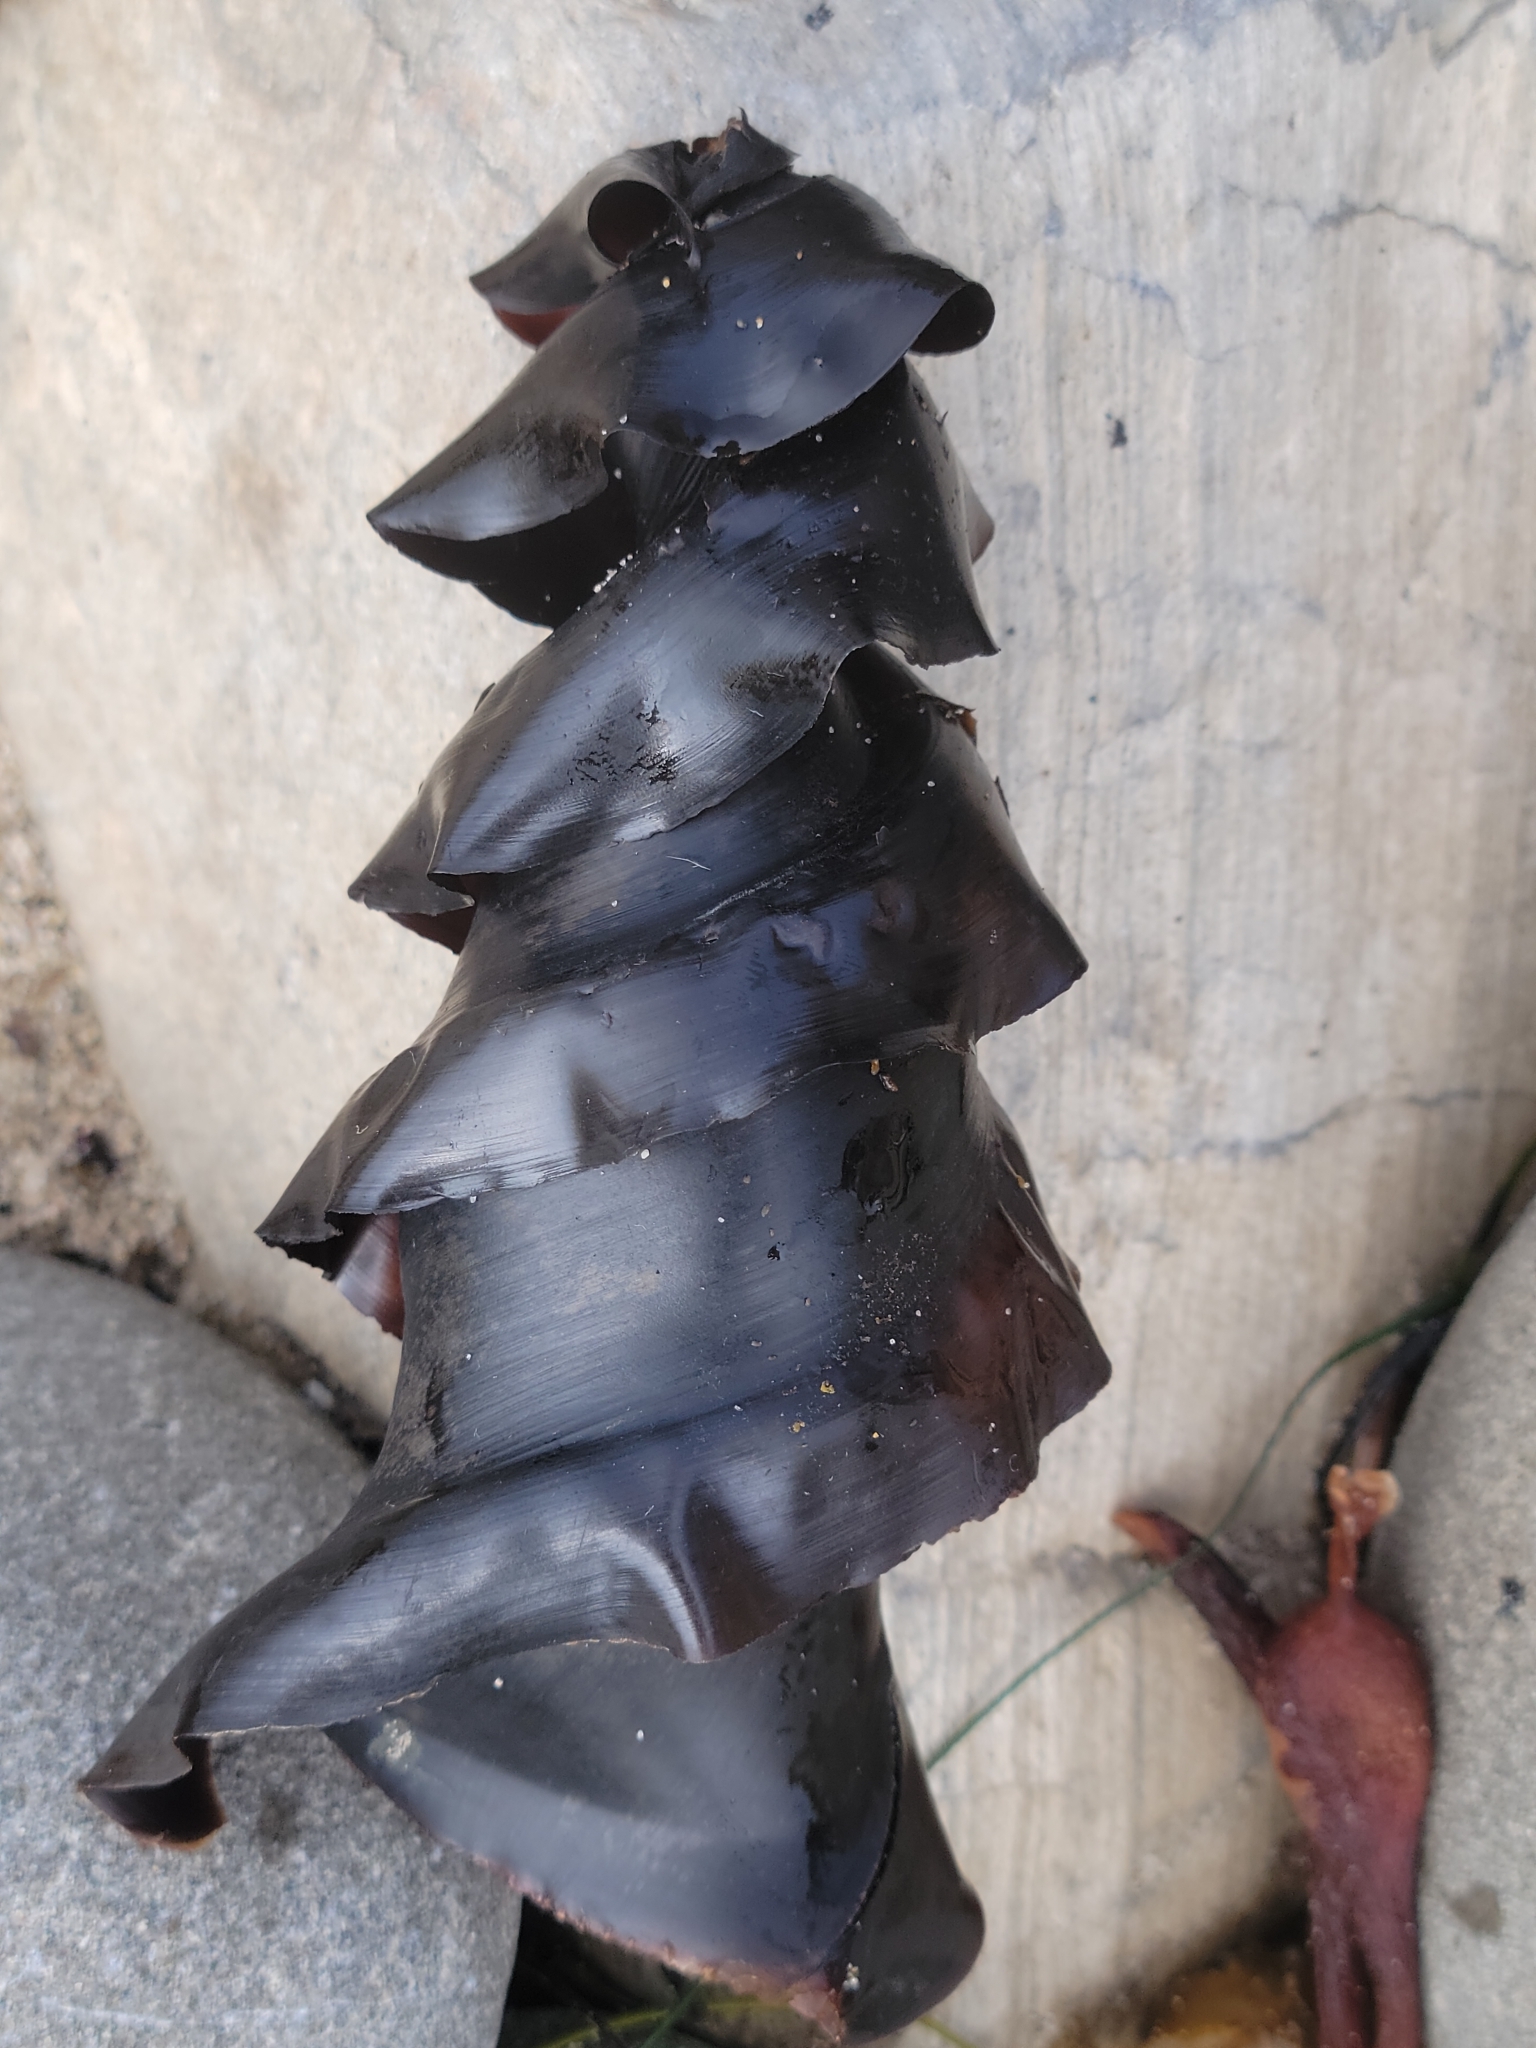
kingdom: Animalia
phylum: Chordata
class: Elasmobranchii
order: Heterodontiformes
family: Heterodontidae
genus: Heterodontus
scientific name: Heterodontus francisci
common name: Horn shark
